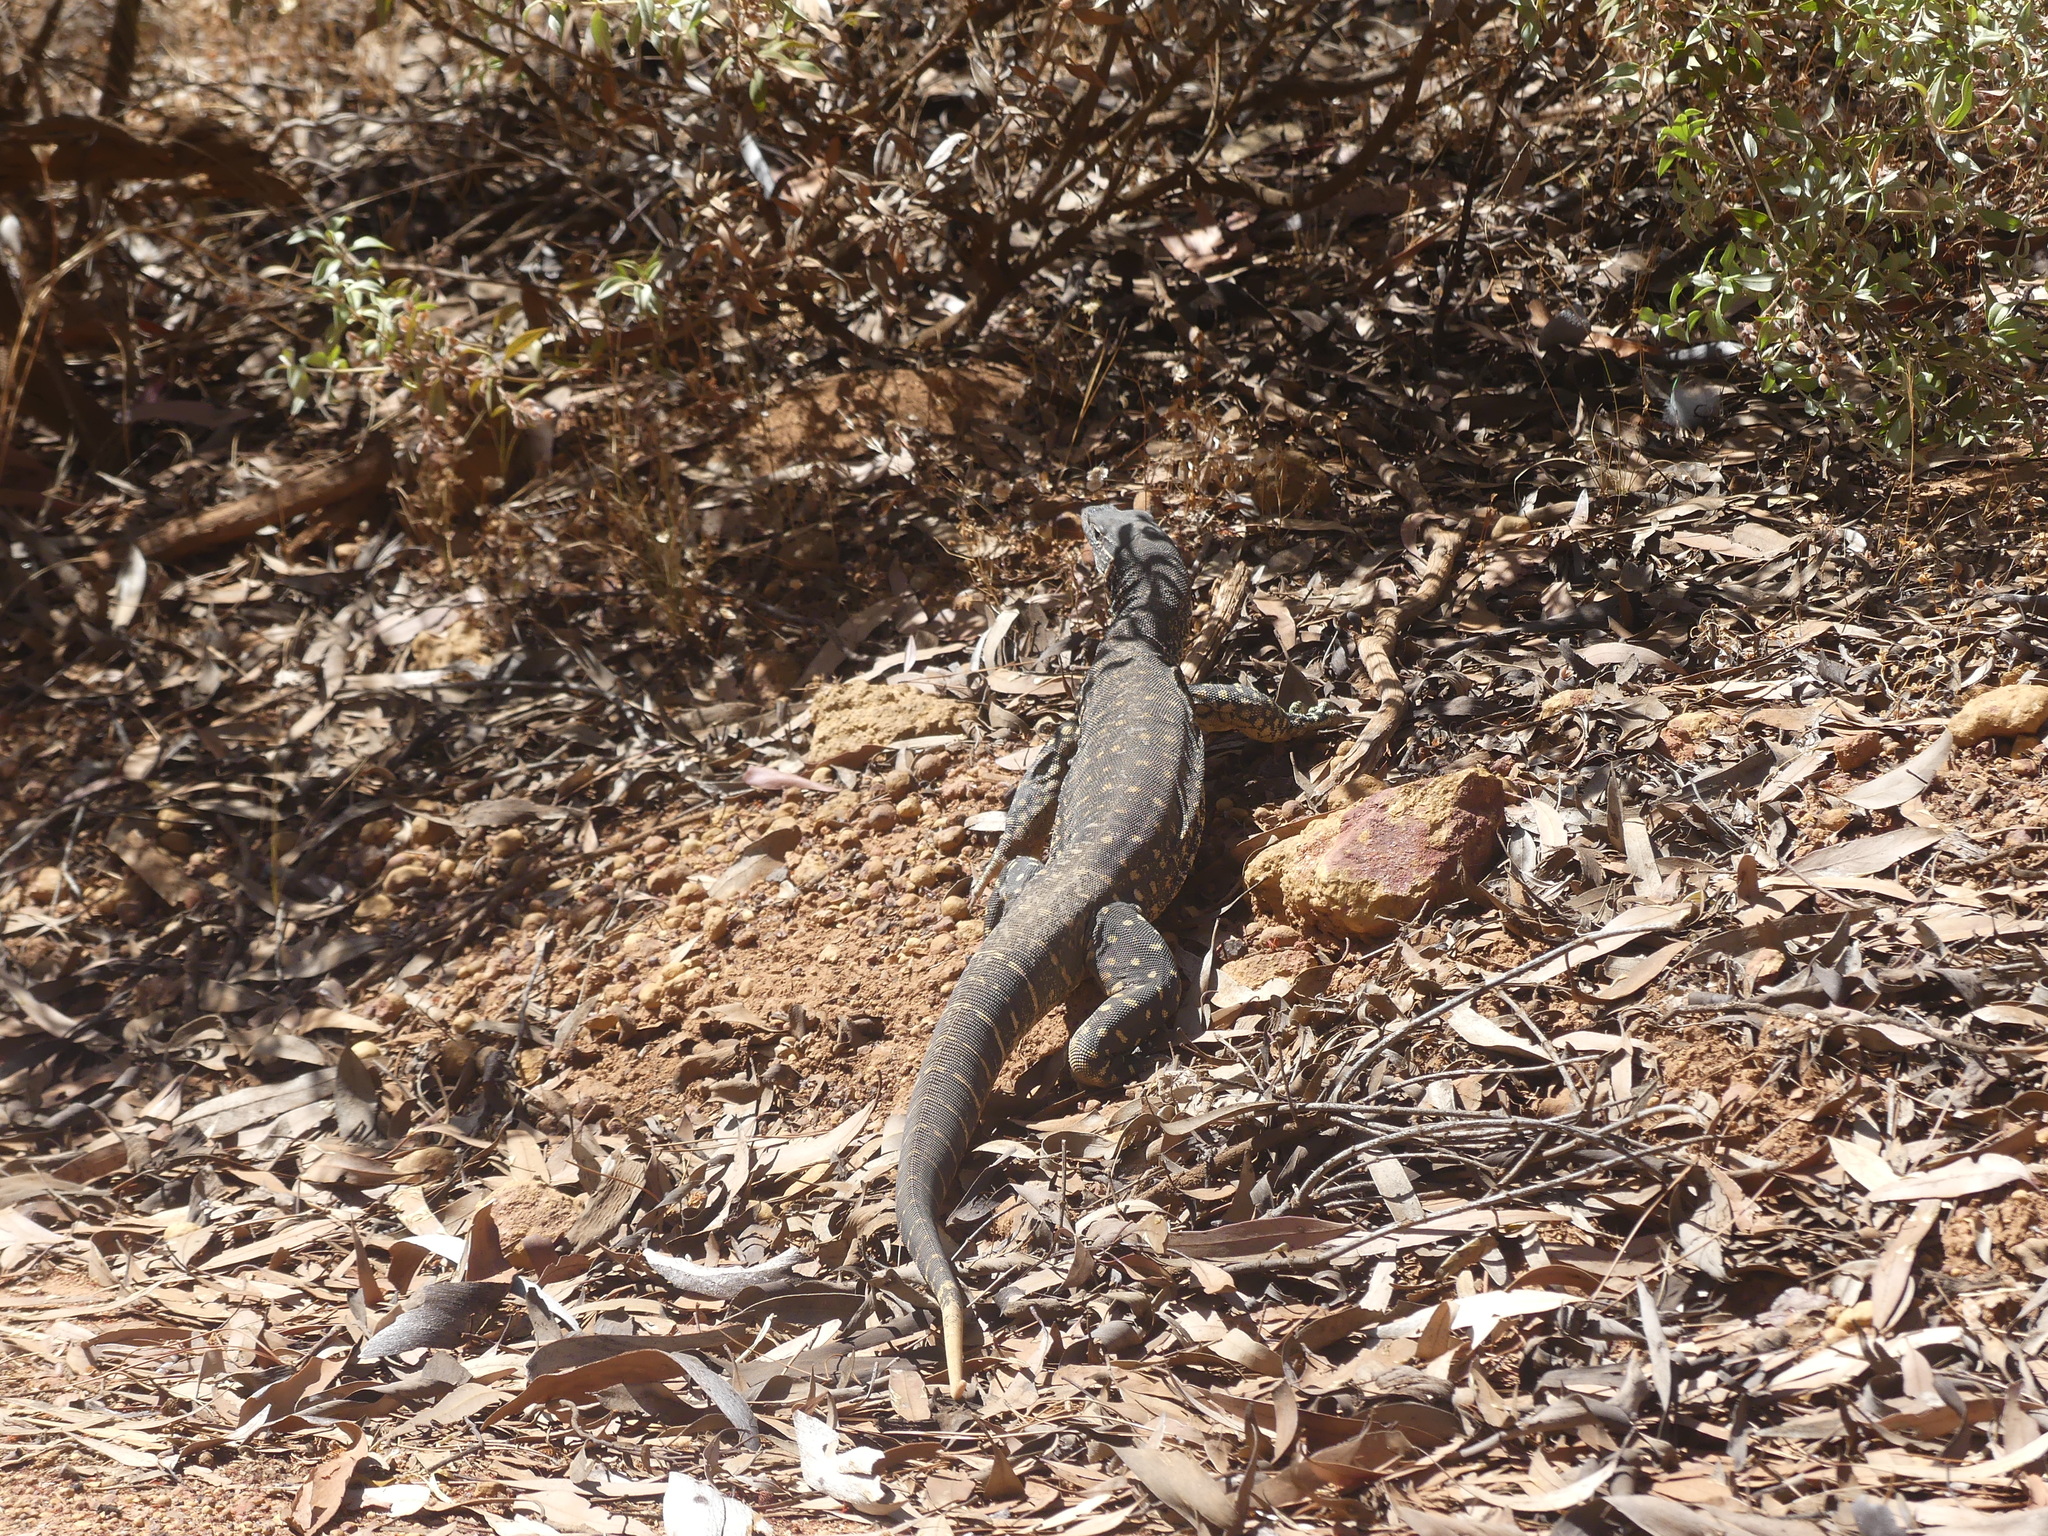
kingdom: Animalia
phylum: Chordata
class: Squamata
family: Varanidae
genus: Varanus
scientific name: Varanus gouldii
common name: Gould's goanna
